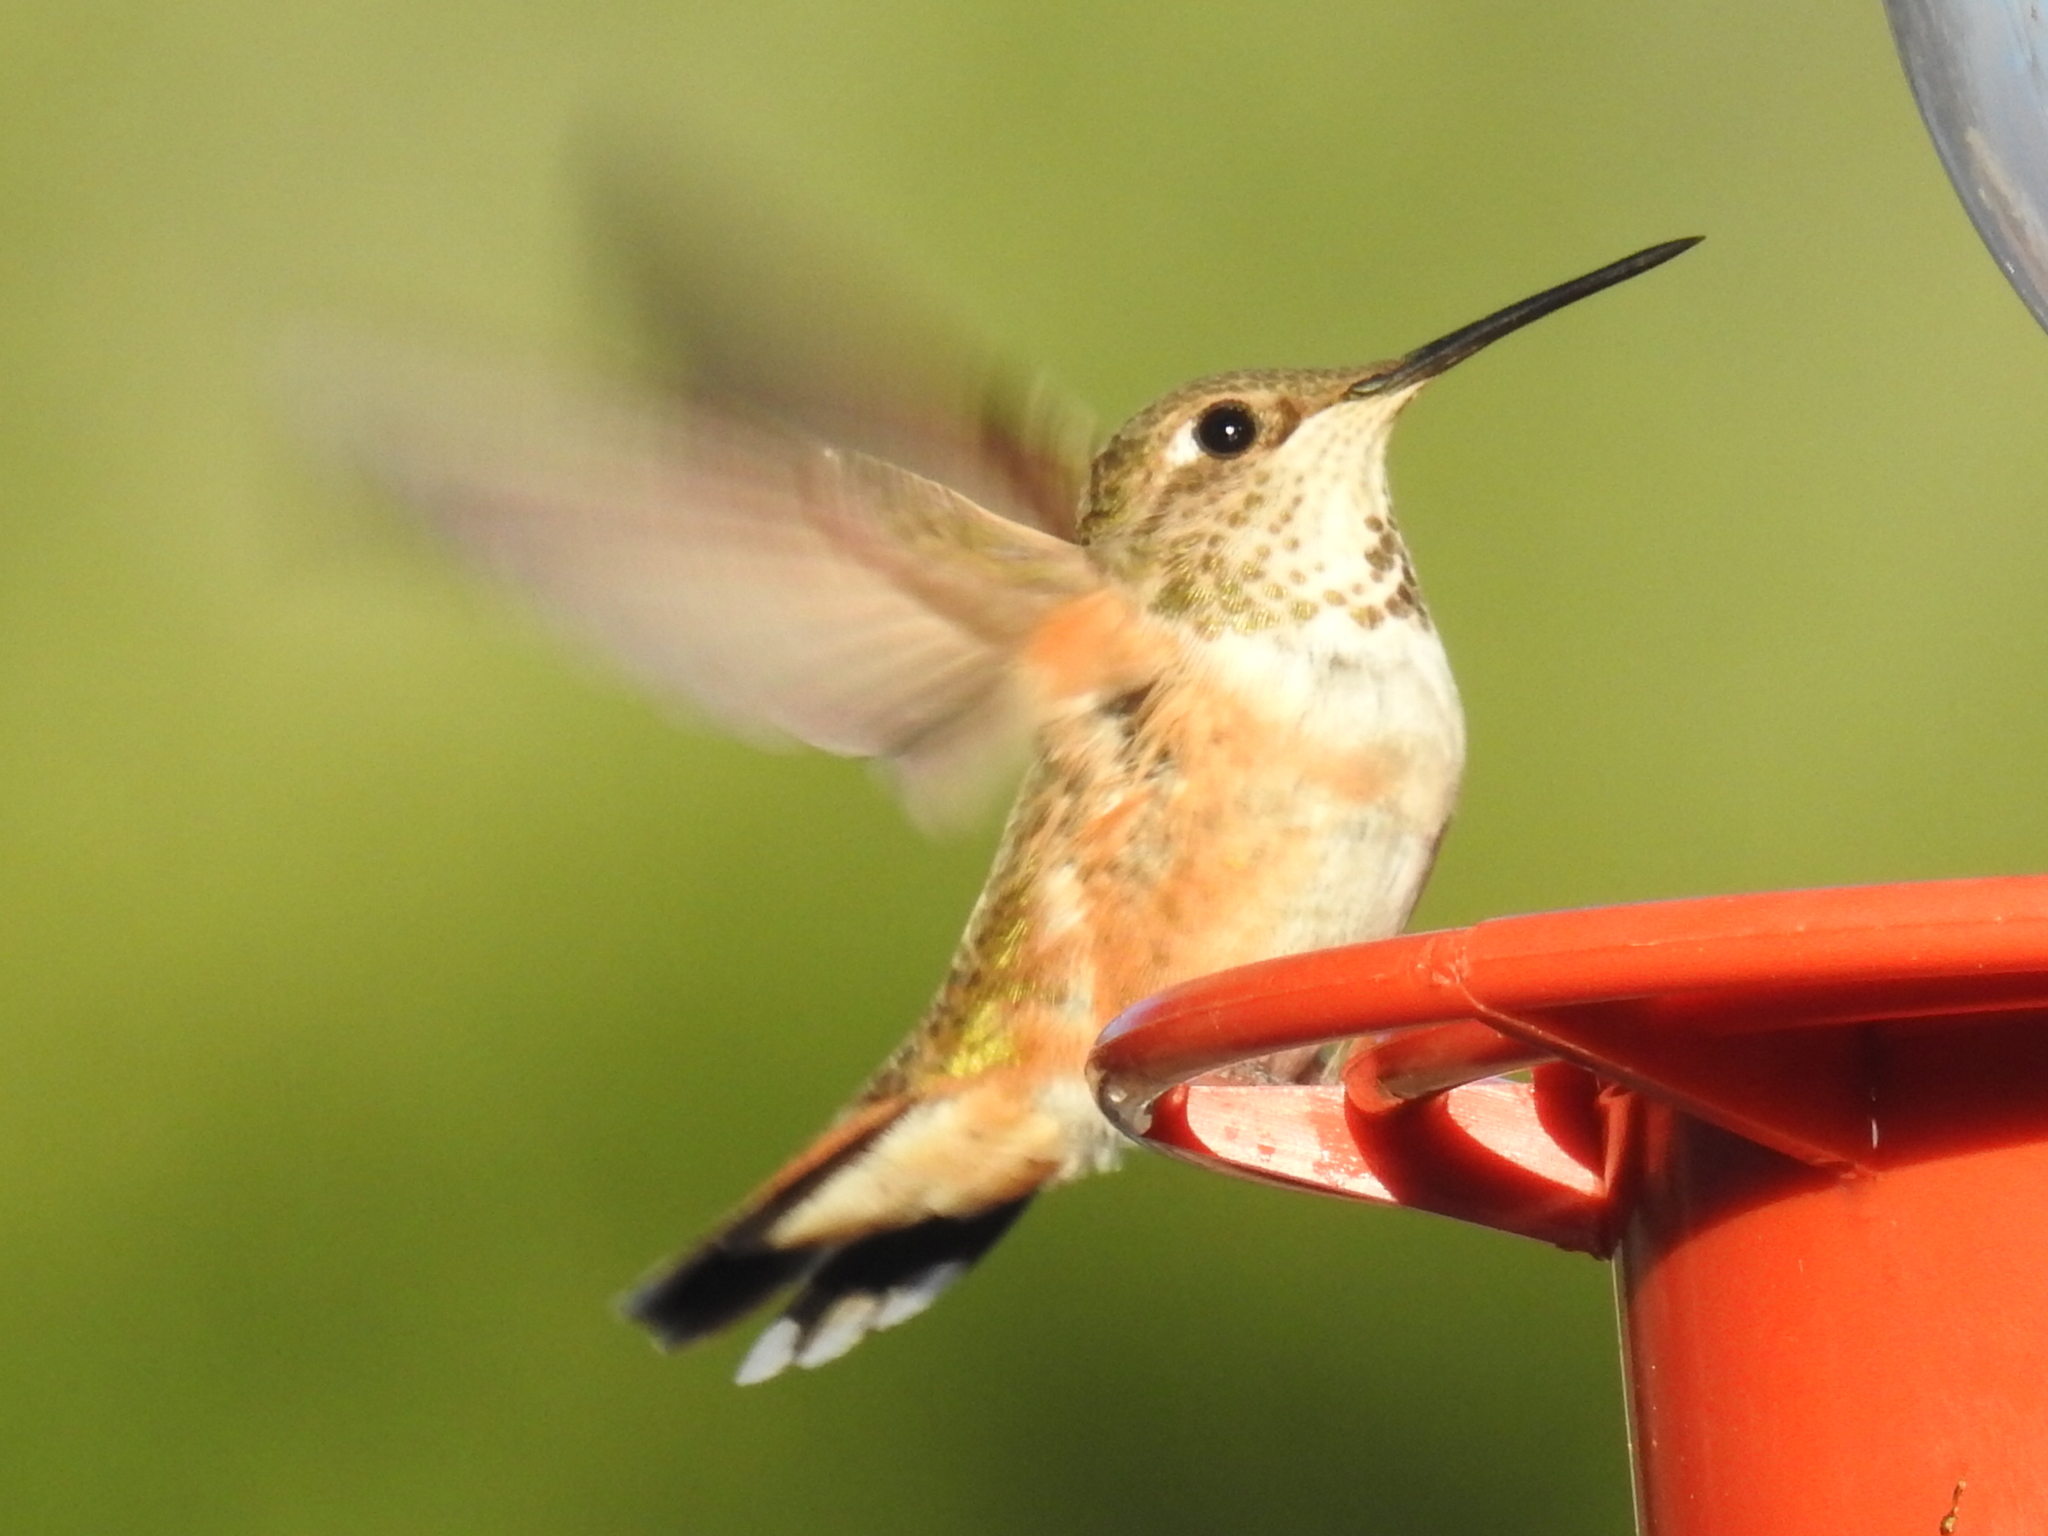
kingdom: Animalia
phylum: Chordata
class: Aves
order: Apodiformes
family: Trochilidae
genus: Selasphorus
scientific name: Selasphorus rufus
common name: Rufous hummingbird
